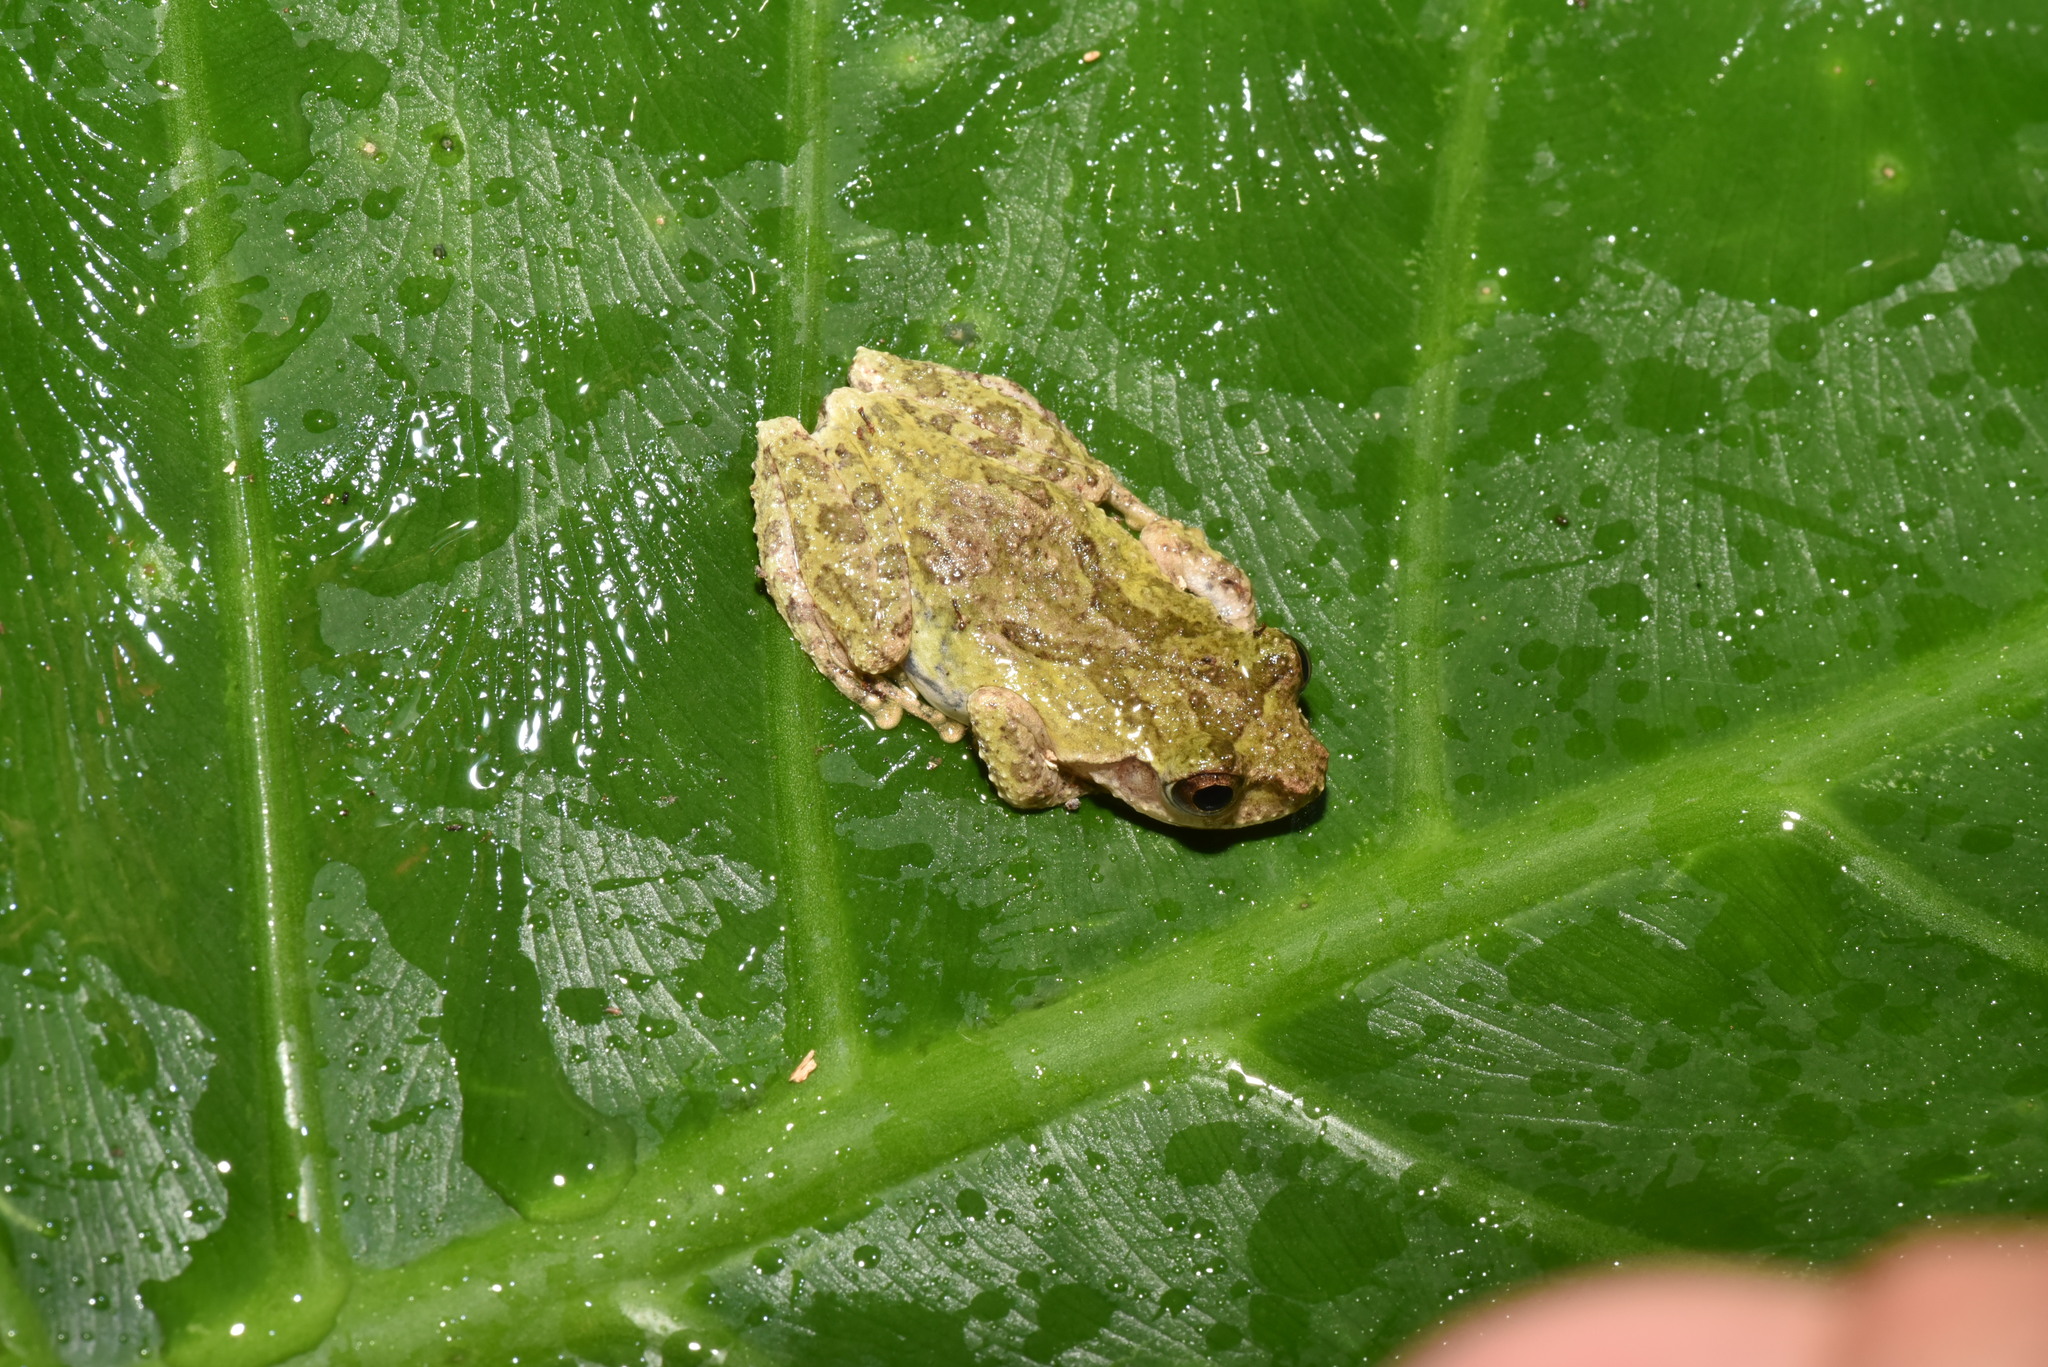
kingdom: Animalia
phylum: Chordata
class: Amphibia
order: Anura
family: Rhacophoridae
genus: Kurixalus
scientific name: Kurixalus eiffingeri
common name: Eiffinger’s treefrog
